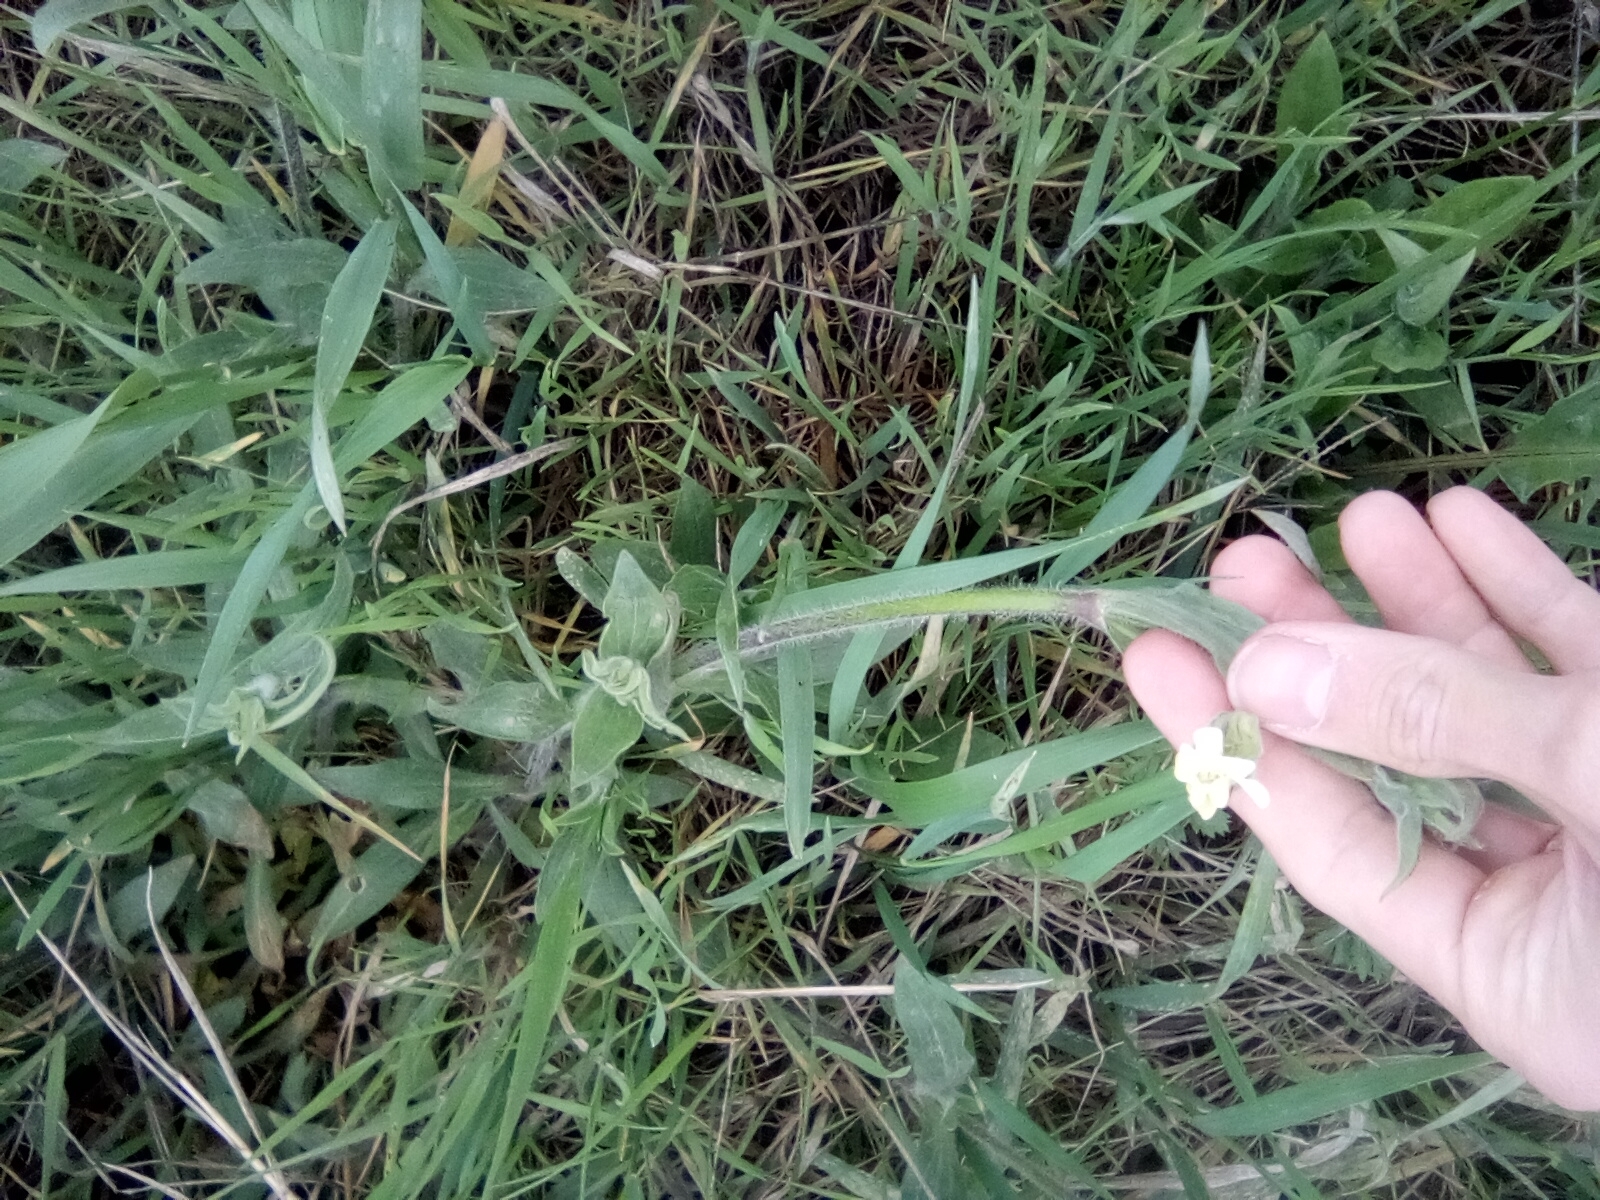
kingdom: Plantae
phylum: Tracheophyta
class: Magnoliopsida
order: Caryophyllales
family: Caryophyllaceae
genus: Silene
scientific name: Silene latifolia
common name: White campion
